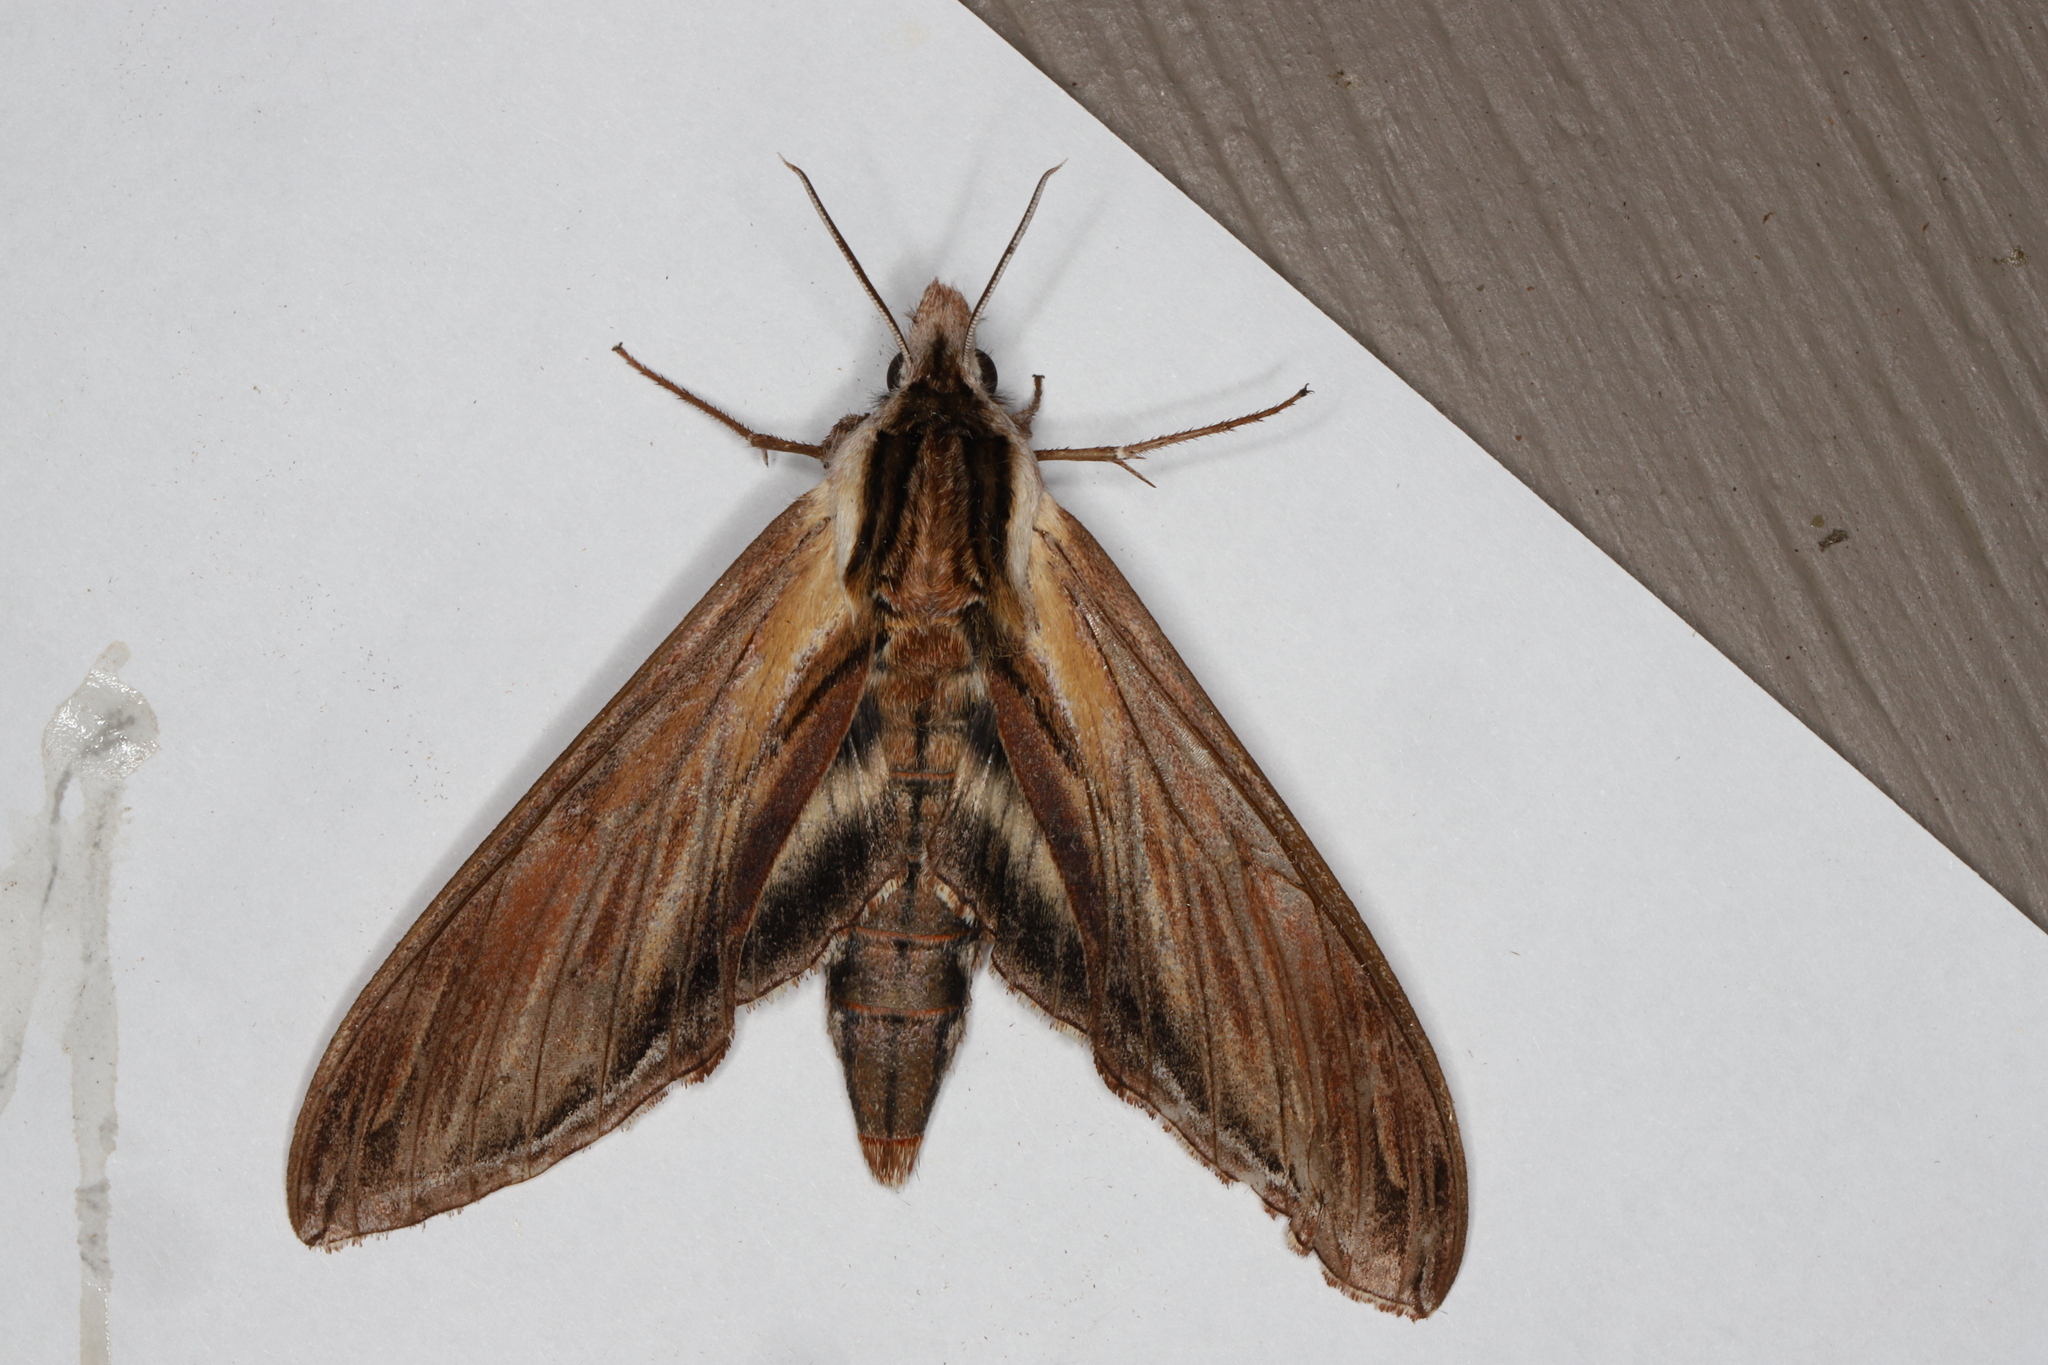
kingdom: Animalia
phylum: Arthropoda
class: Insecta
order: Lepidoptera
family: Sphingidae
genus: Sphinx
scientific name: Sphinx kalmiae
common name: Laurel sphinx
